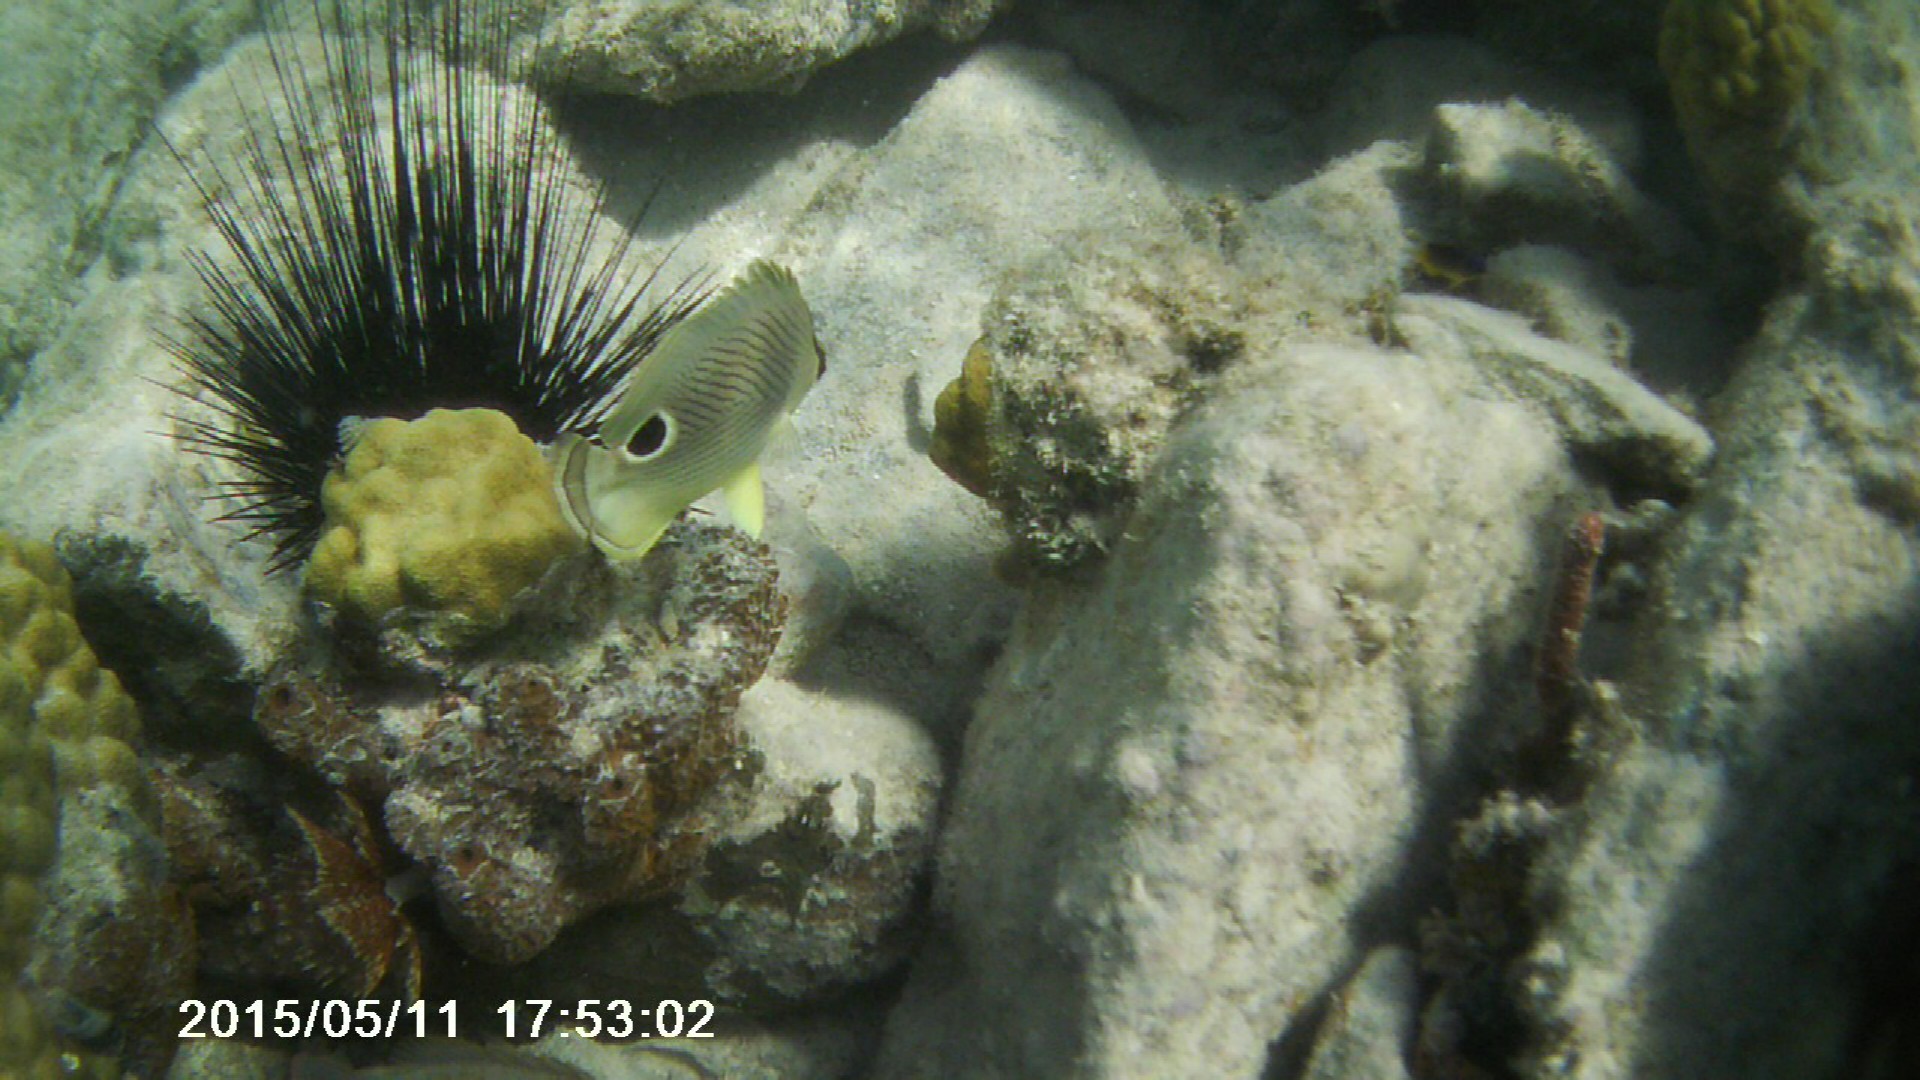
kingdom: Animalia
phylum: Chordata
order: Perciformes
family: Chaetodontidae
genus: Chaetodon
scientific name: Chaetodon capistratus
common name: Kete
